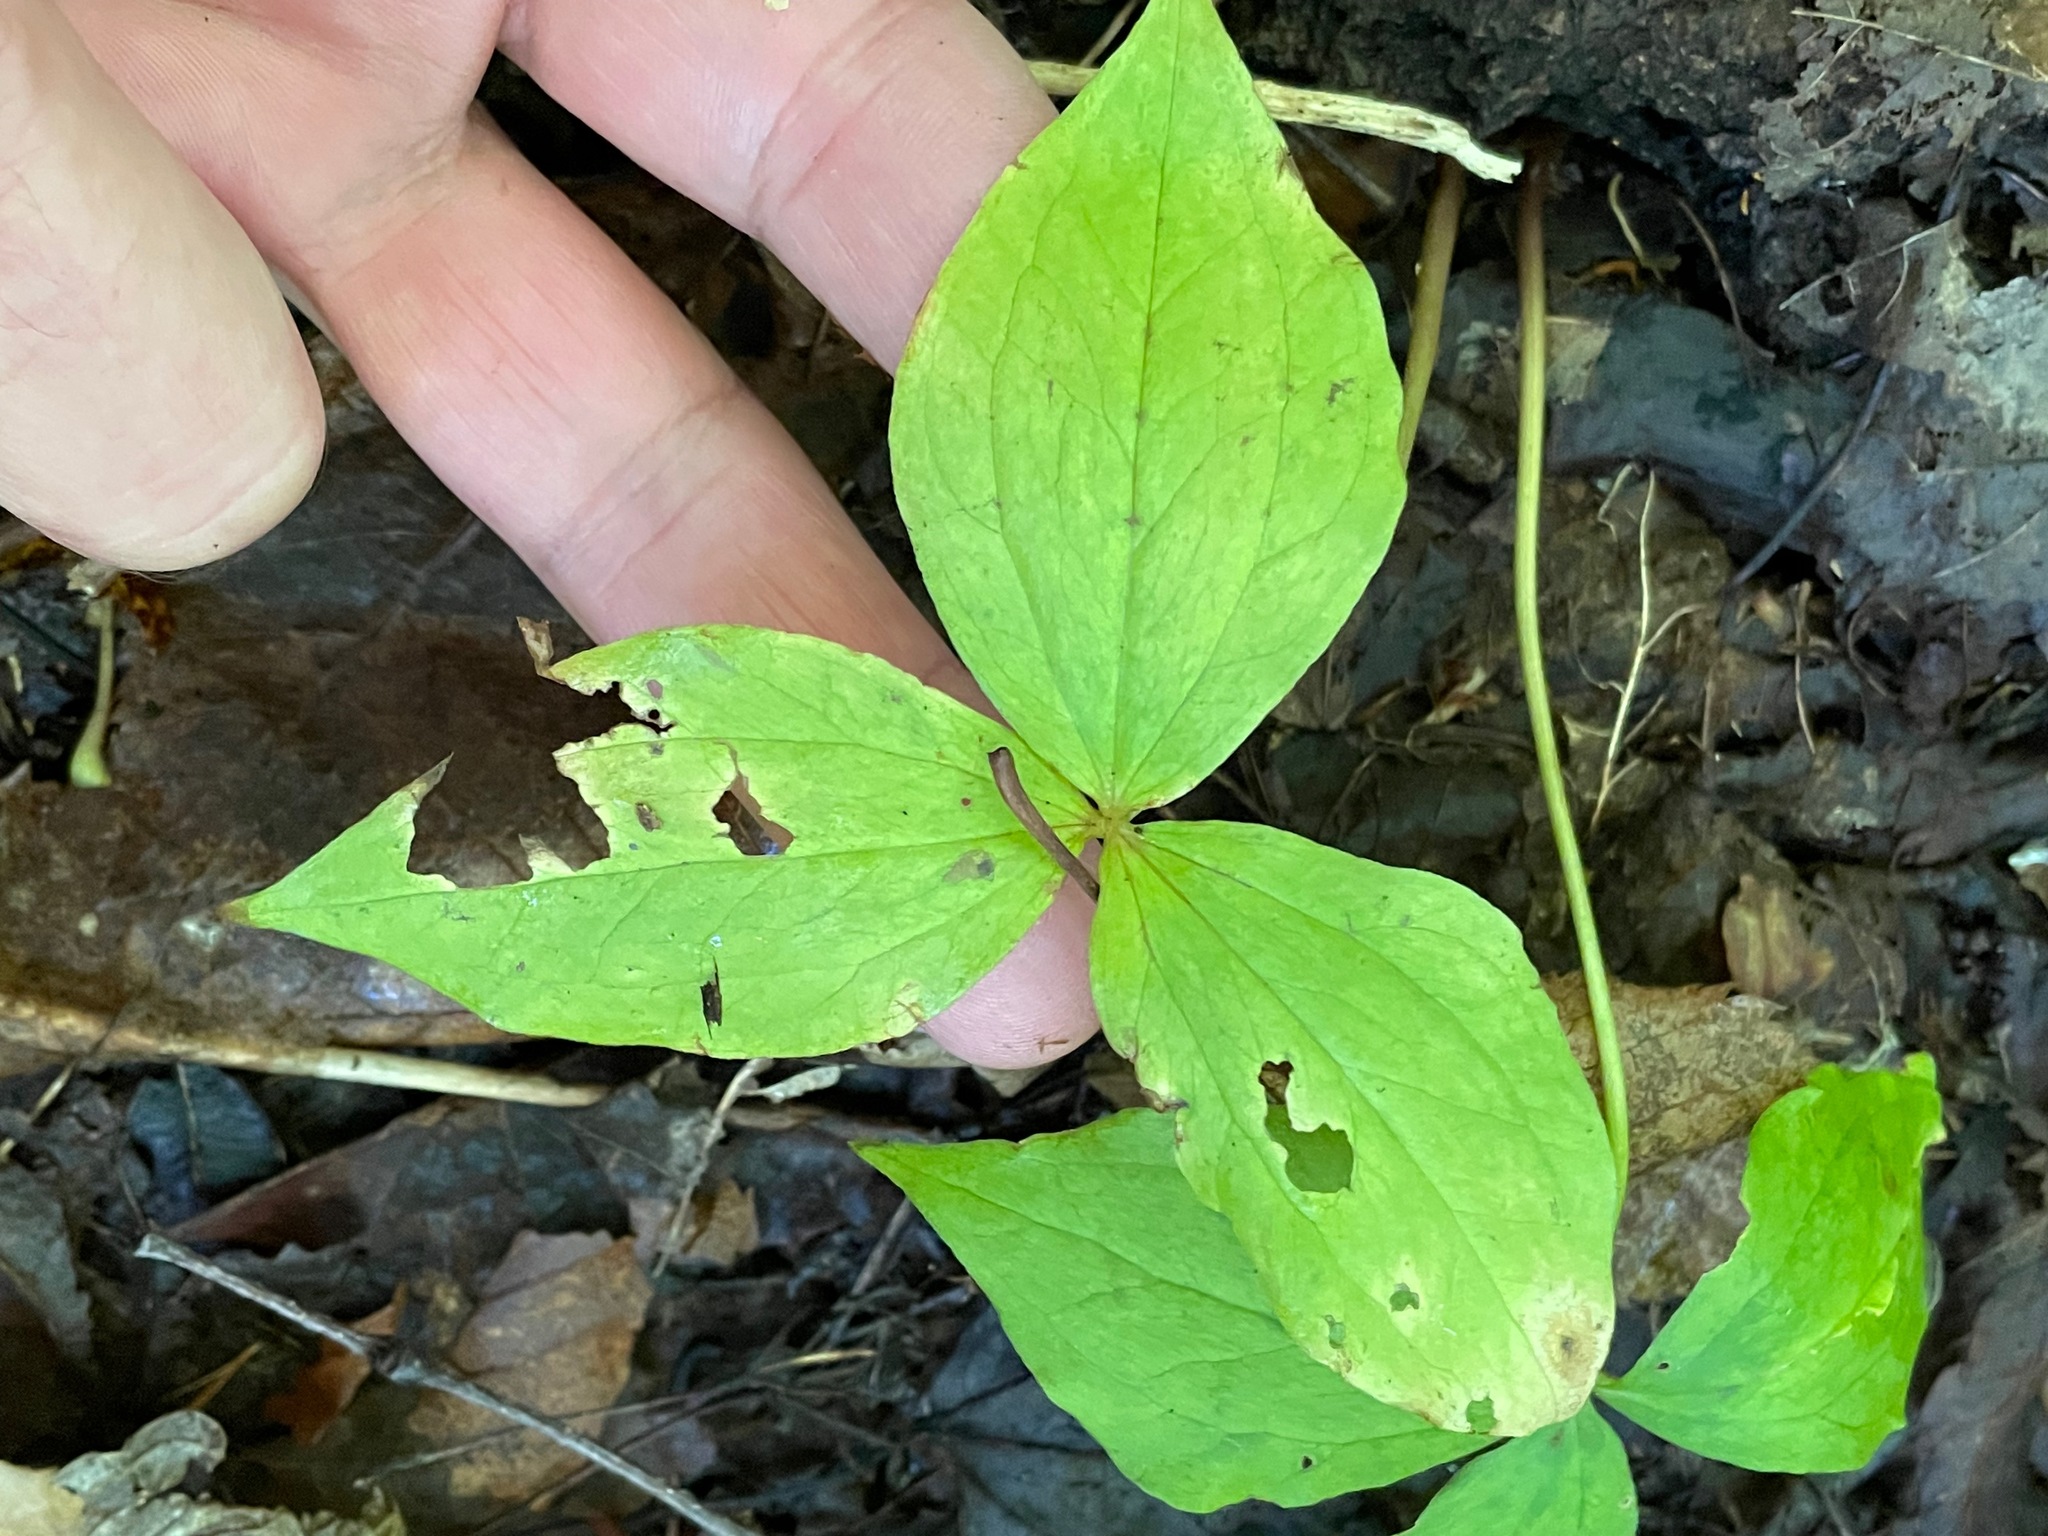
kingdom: Plantae
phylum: Tracheophyta
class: Liliopsida
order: Liliales
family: Melanthiaceae
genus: Trillium
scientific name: Trillium grandiflorum
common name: Great white trillium
